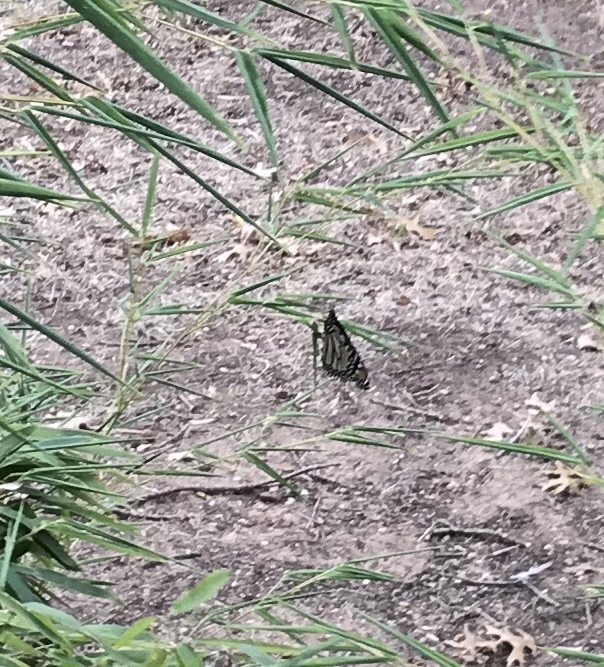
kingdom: Animalia
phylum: Arthropoda
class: Insecta
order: Lepidoptera
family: Nymphalidae
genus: Danaus
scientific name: Danaus plexippus
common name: Monarch
